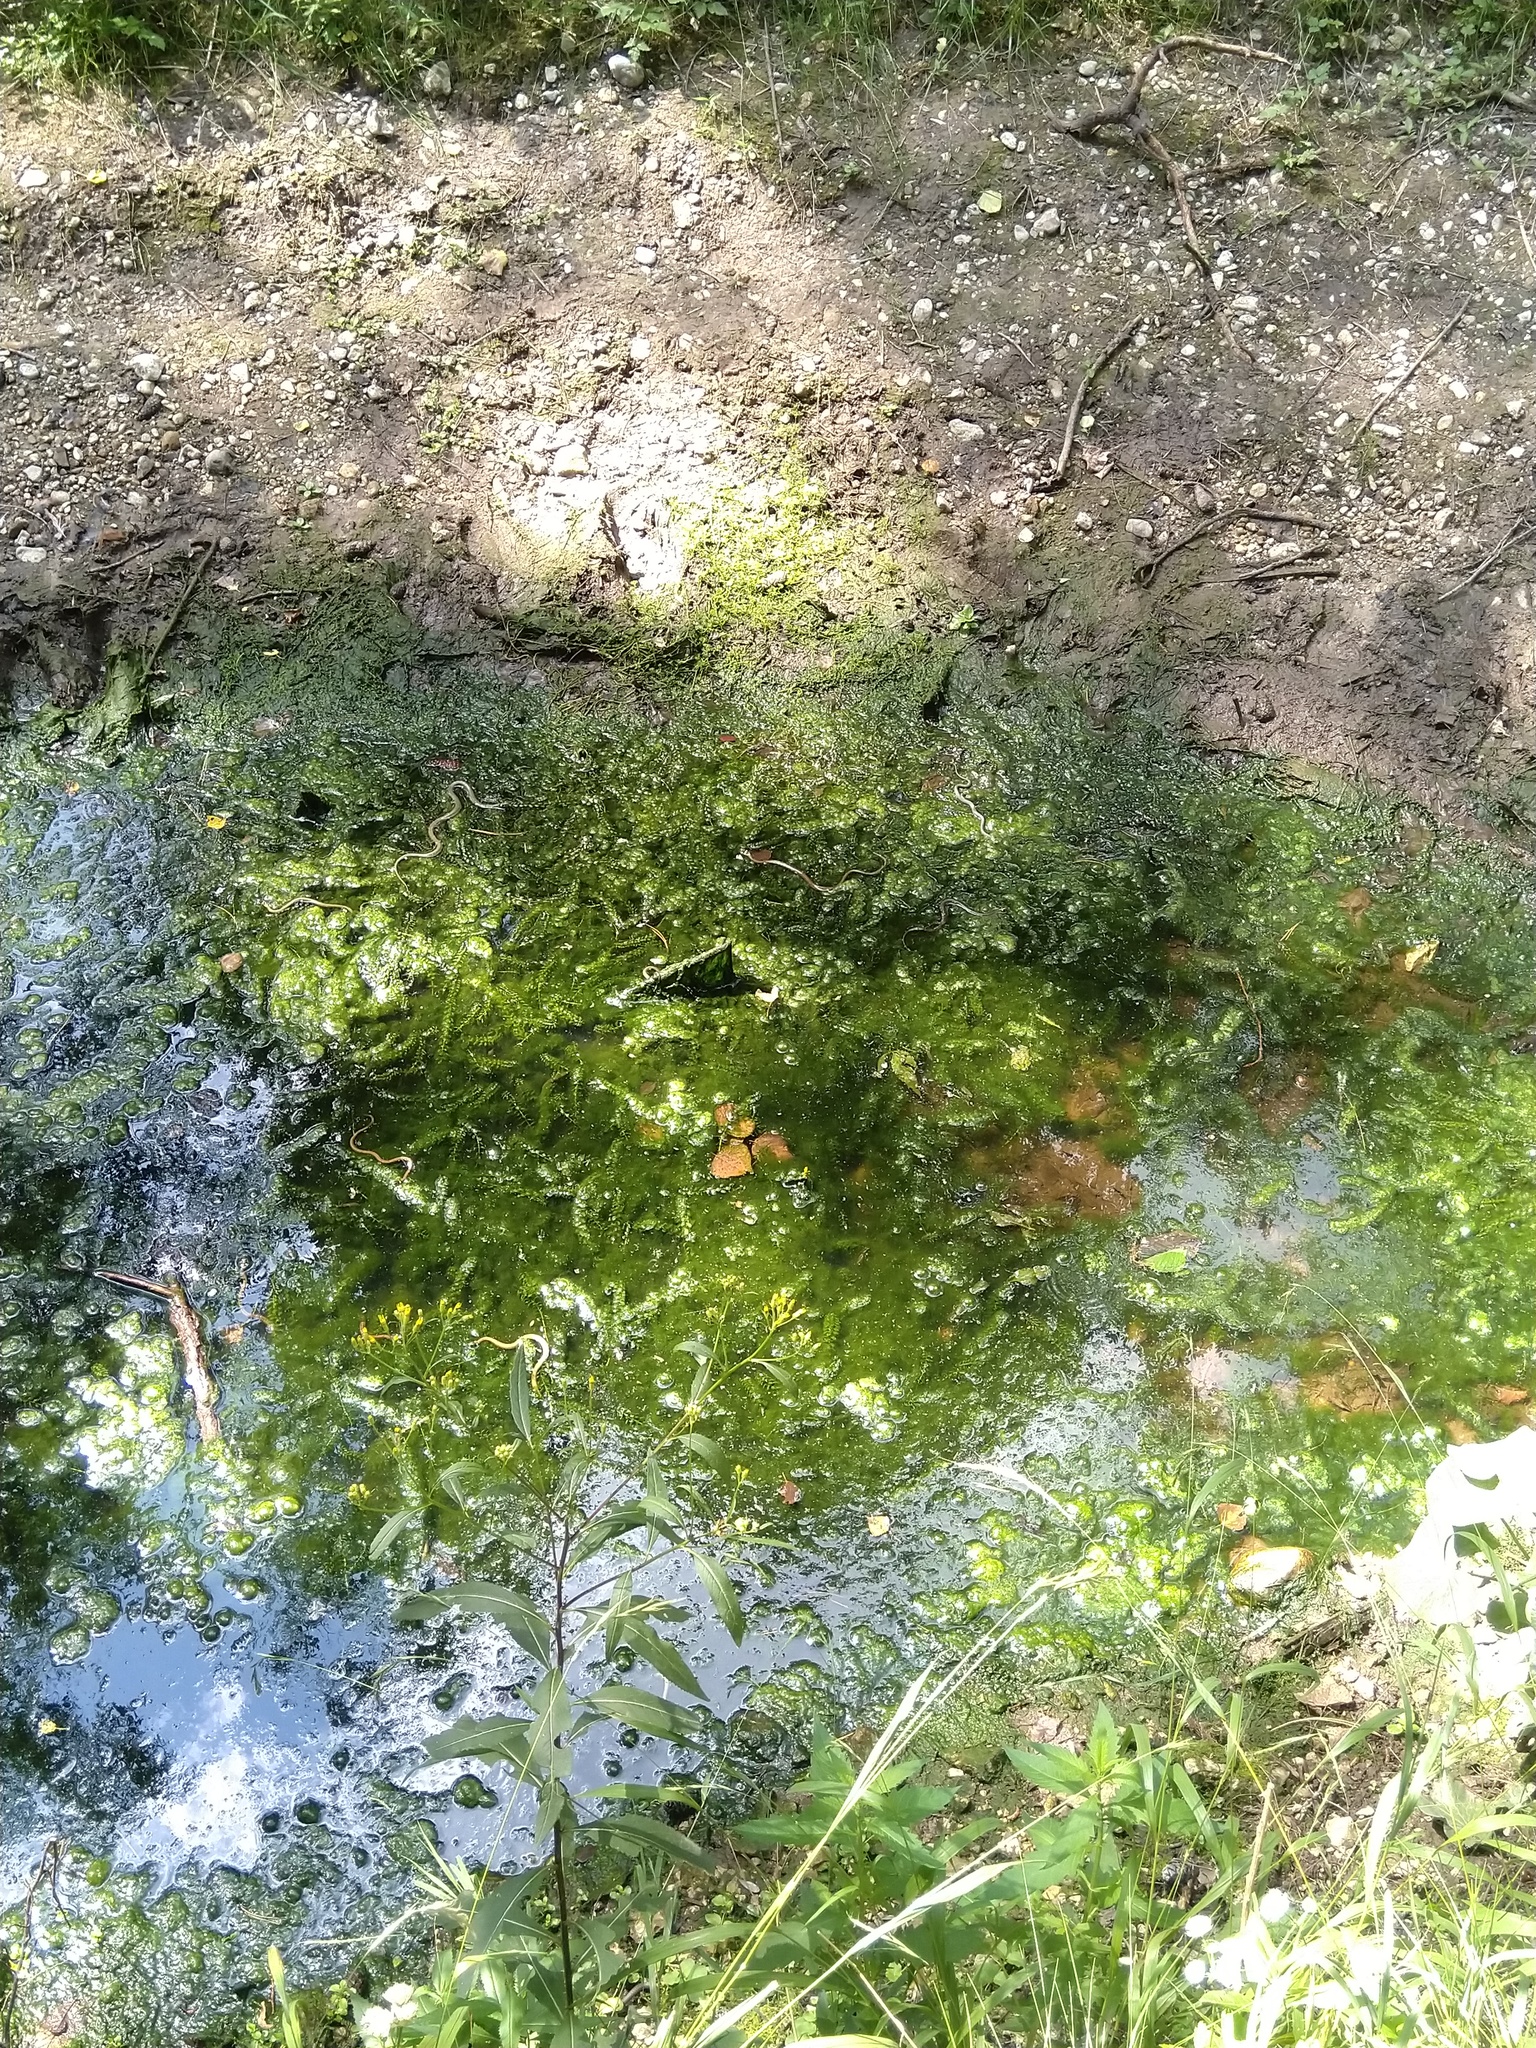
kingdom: Animalia
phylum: Chordata
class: Squamata
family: Colubridae
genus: Natrix
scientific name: Natrix natrix
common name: Grass snake
